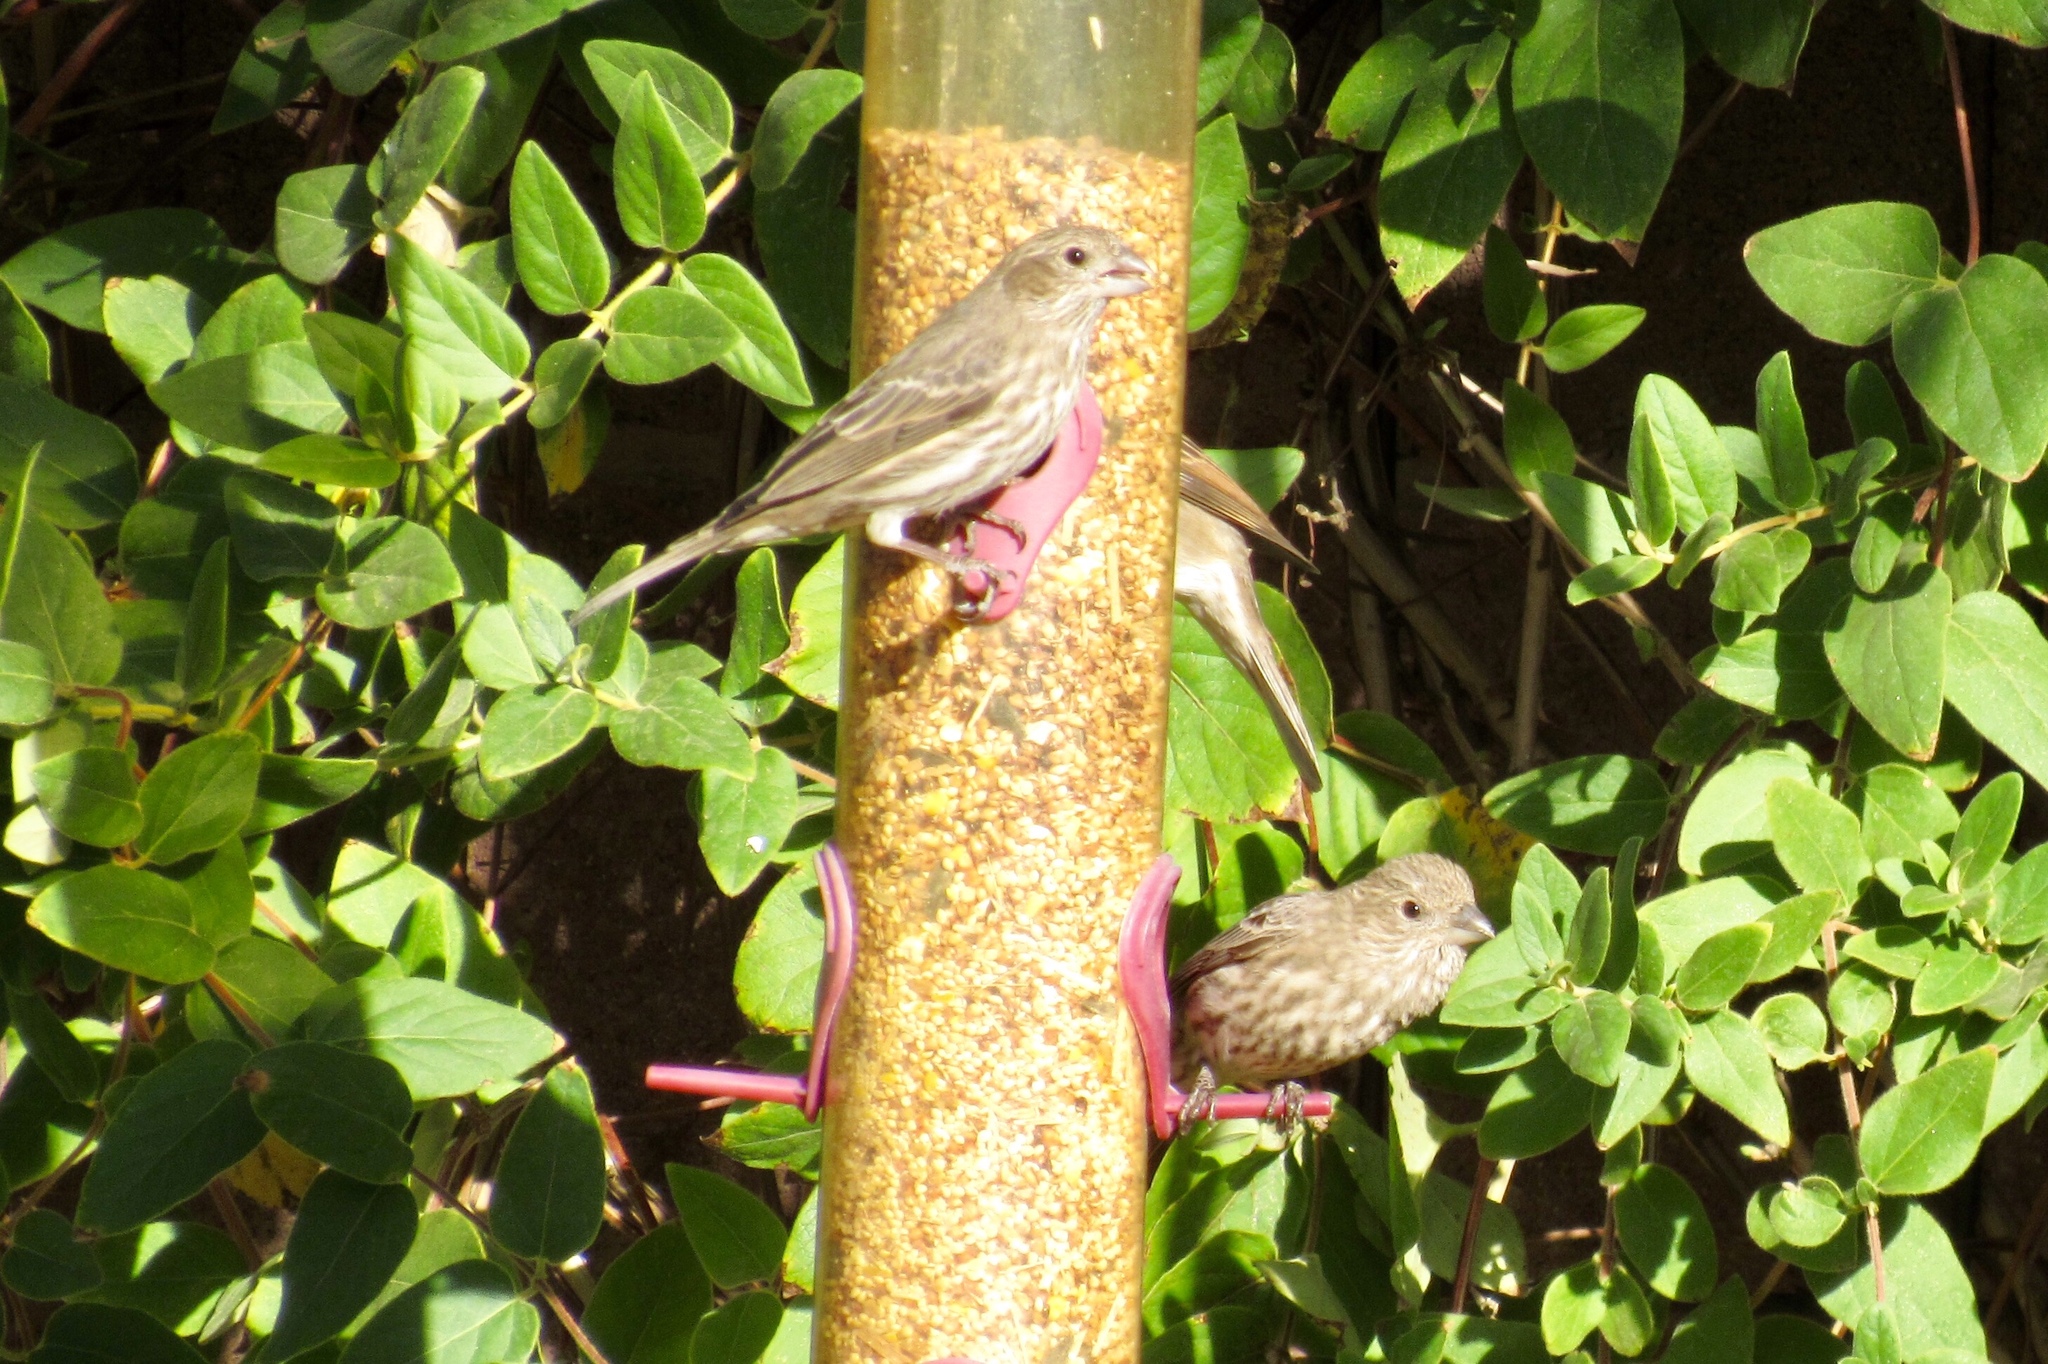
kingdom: Animalia
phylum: Chordata
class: Aves
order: Passeriformes
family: Fringillidae
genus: Haemorhous
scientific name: Haemorhous mexicanus
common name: House finch
